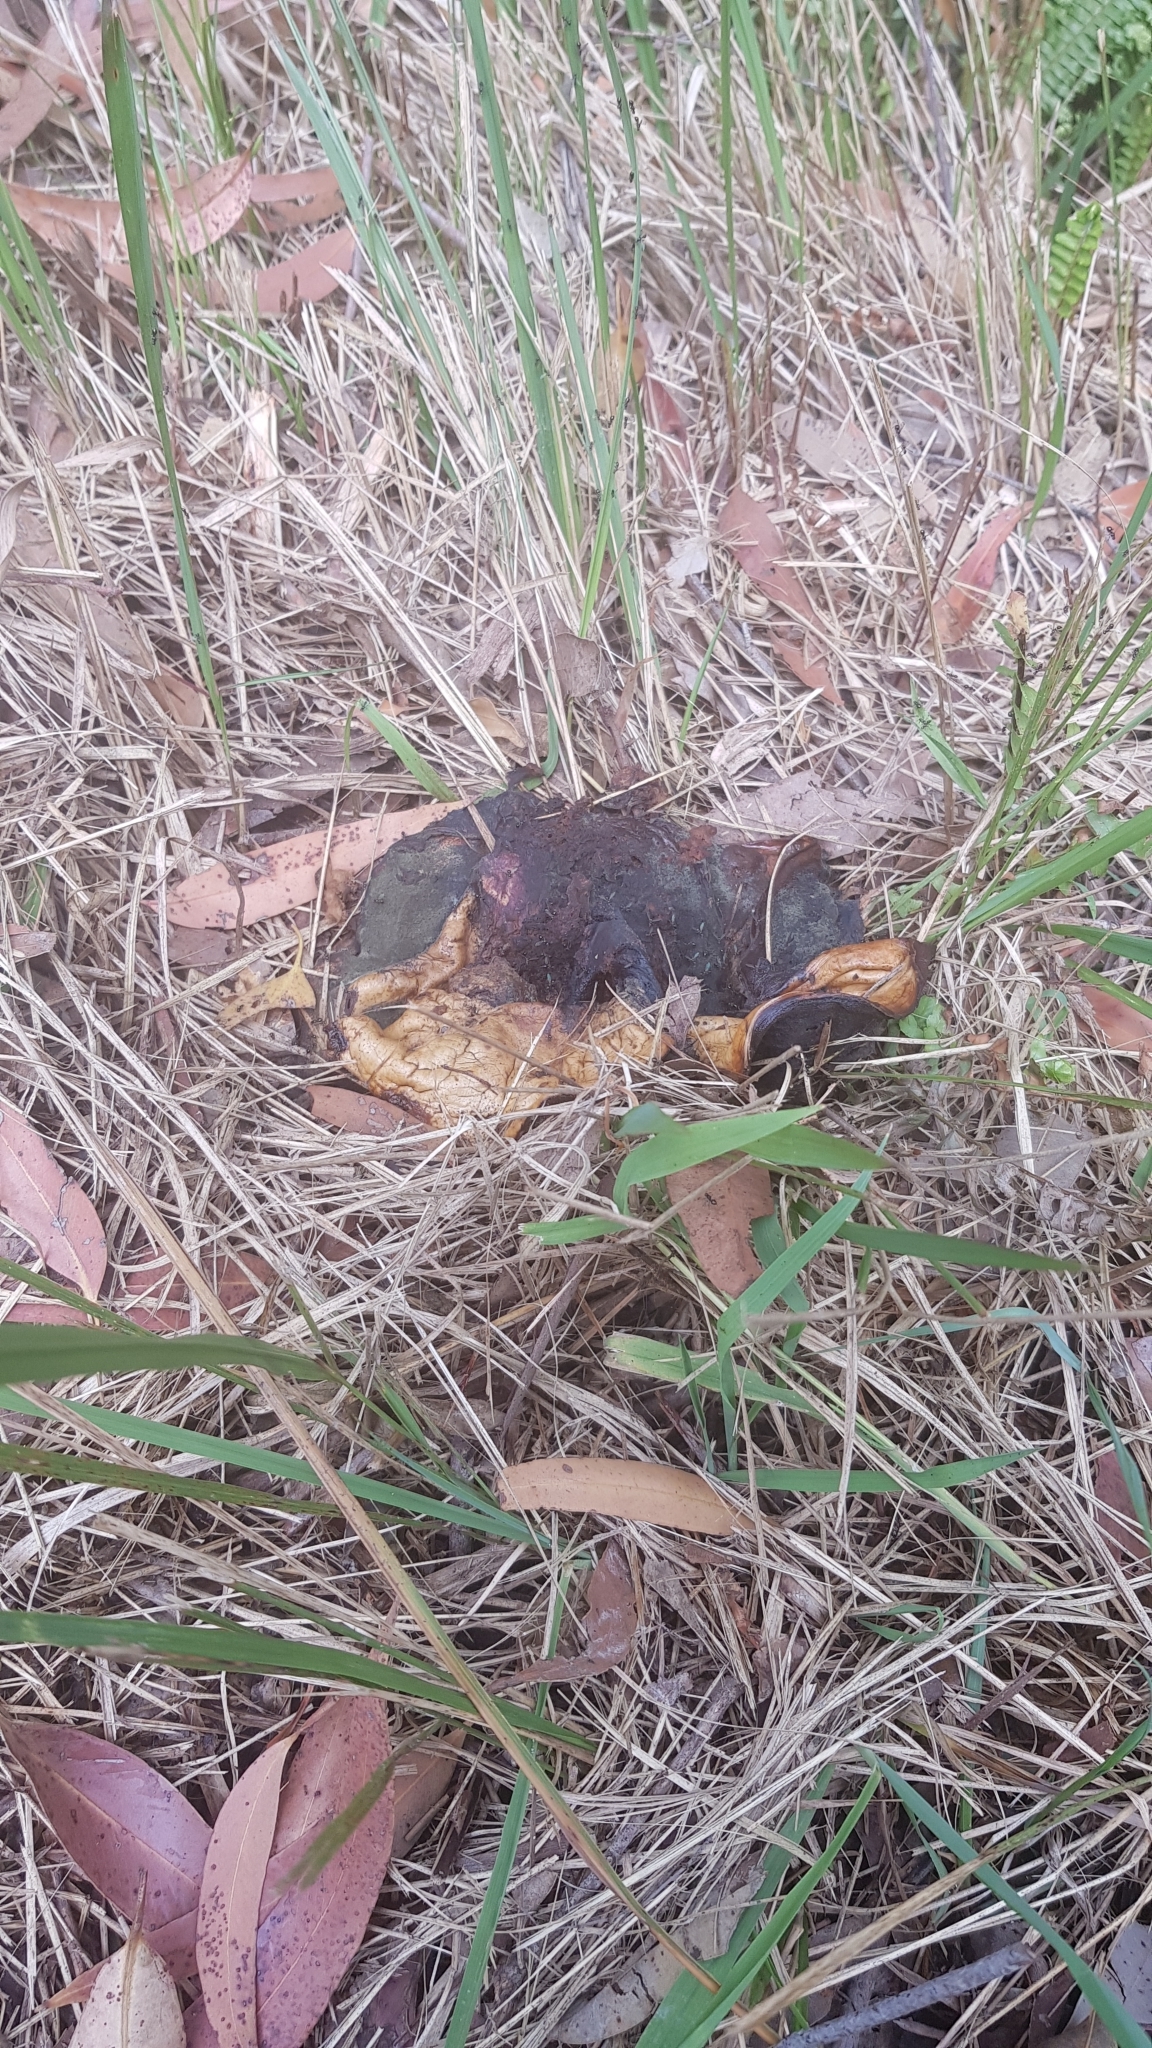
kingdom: Fungi
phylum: Basidiomycota
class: Agaricomycetes
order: Boletales
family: Boletinellaceae
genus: Phlebopus
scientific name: Phlebopus marginatus
